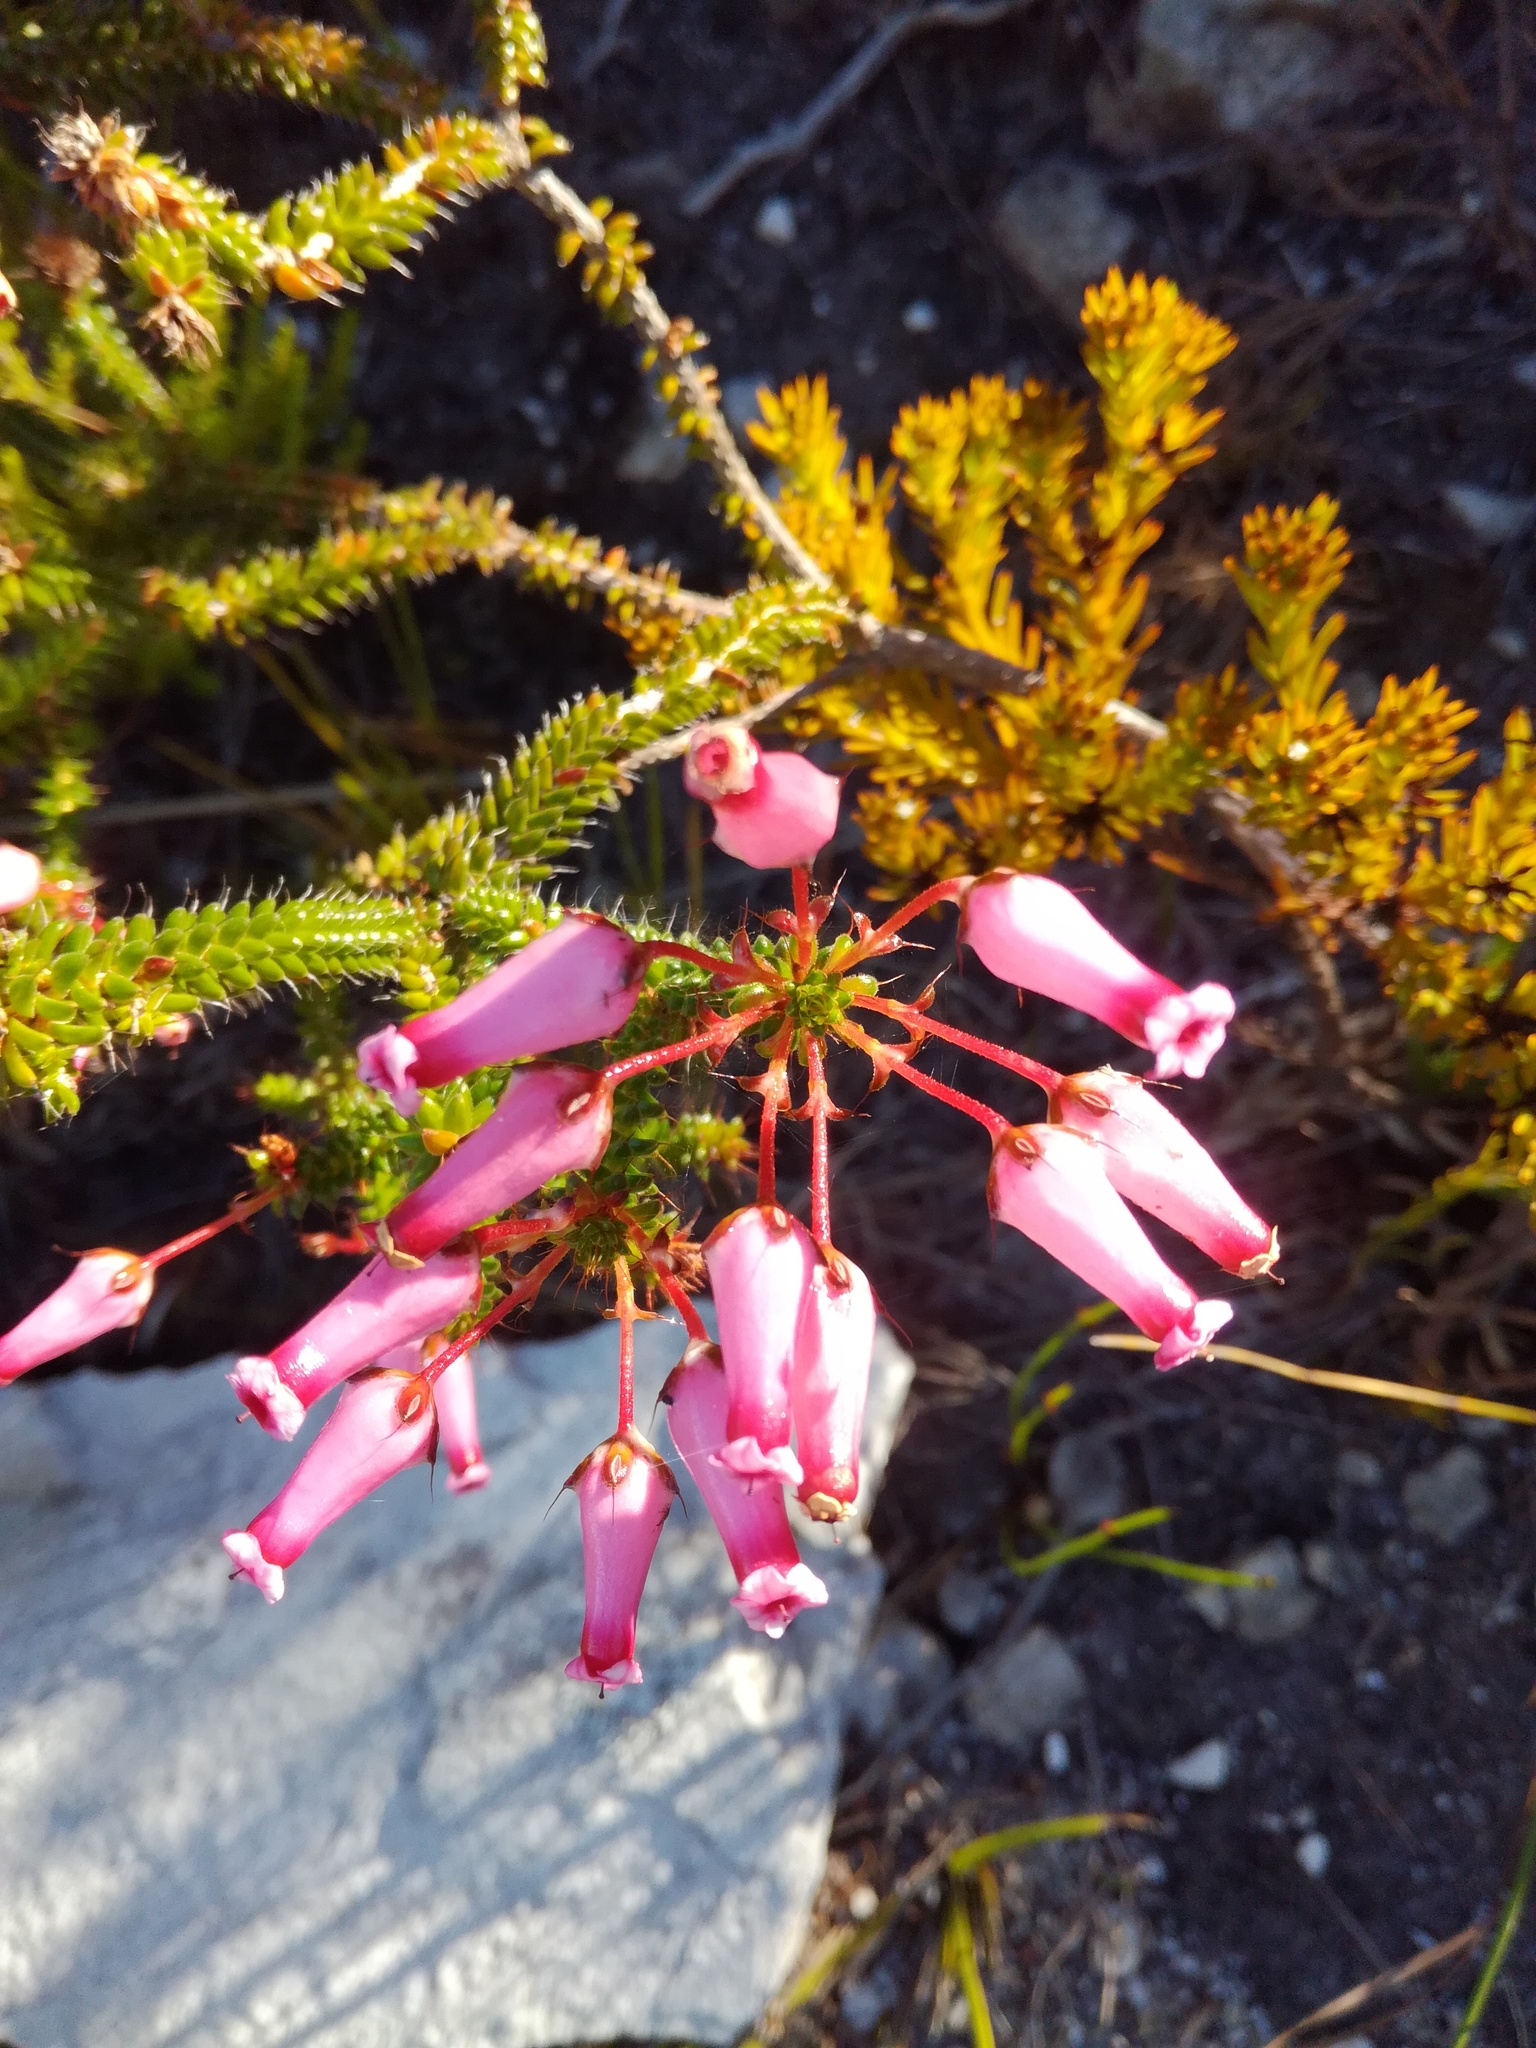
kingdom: Plantae
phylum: Tracheophyta
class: Magnoliopsida
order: Ericales
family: Ericaceae
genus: Erica
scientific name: Erica retorta
